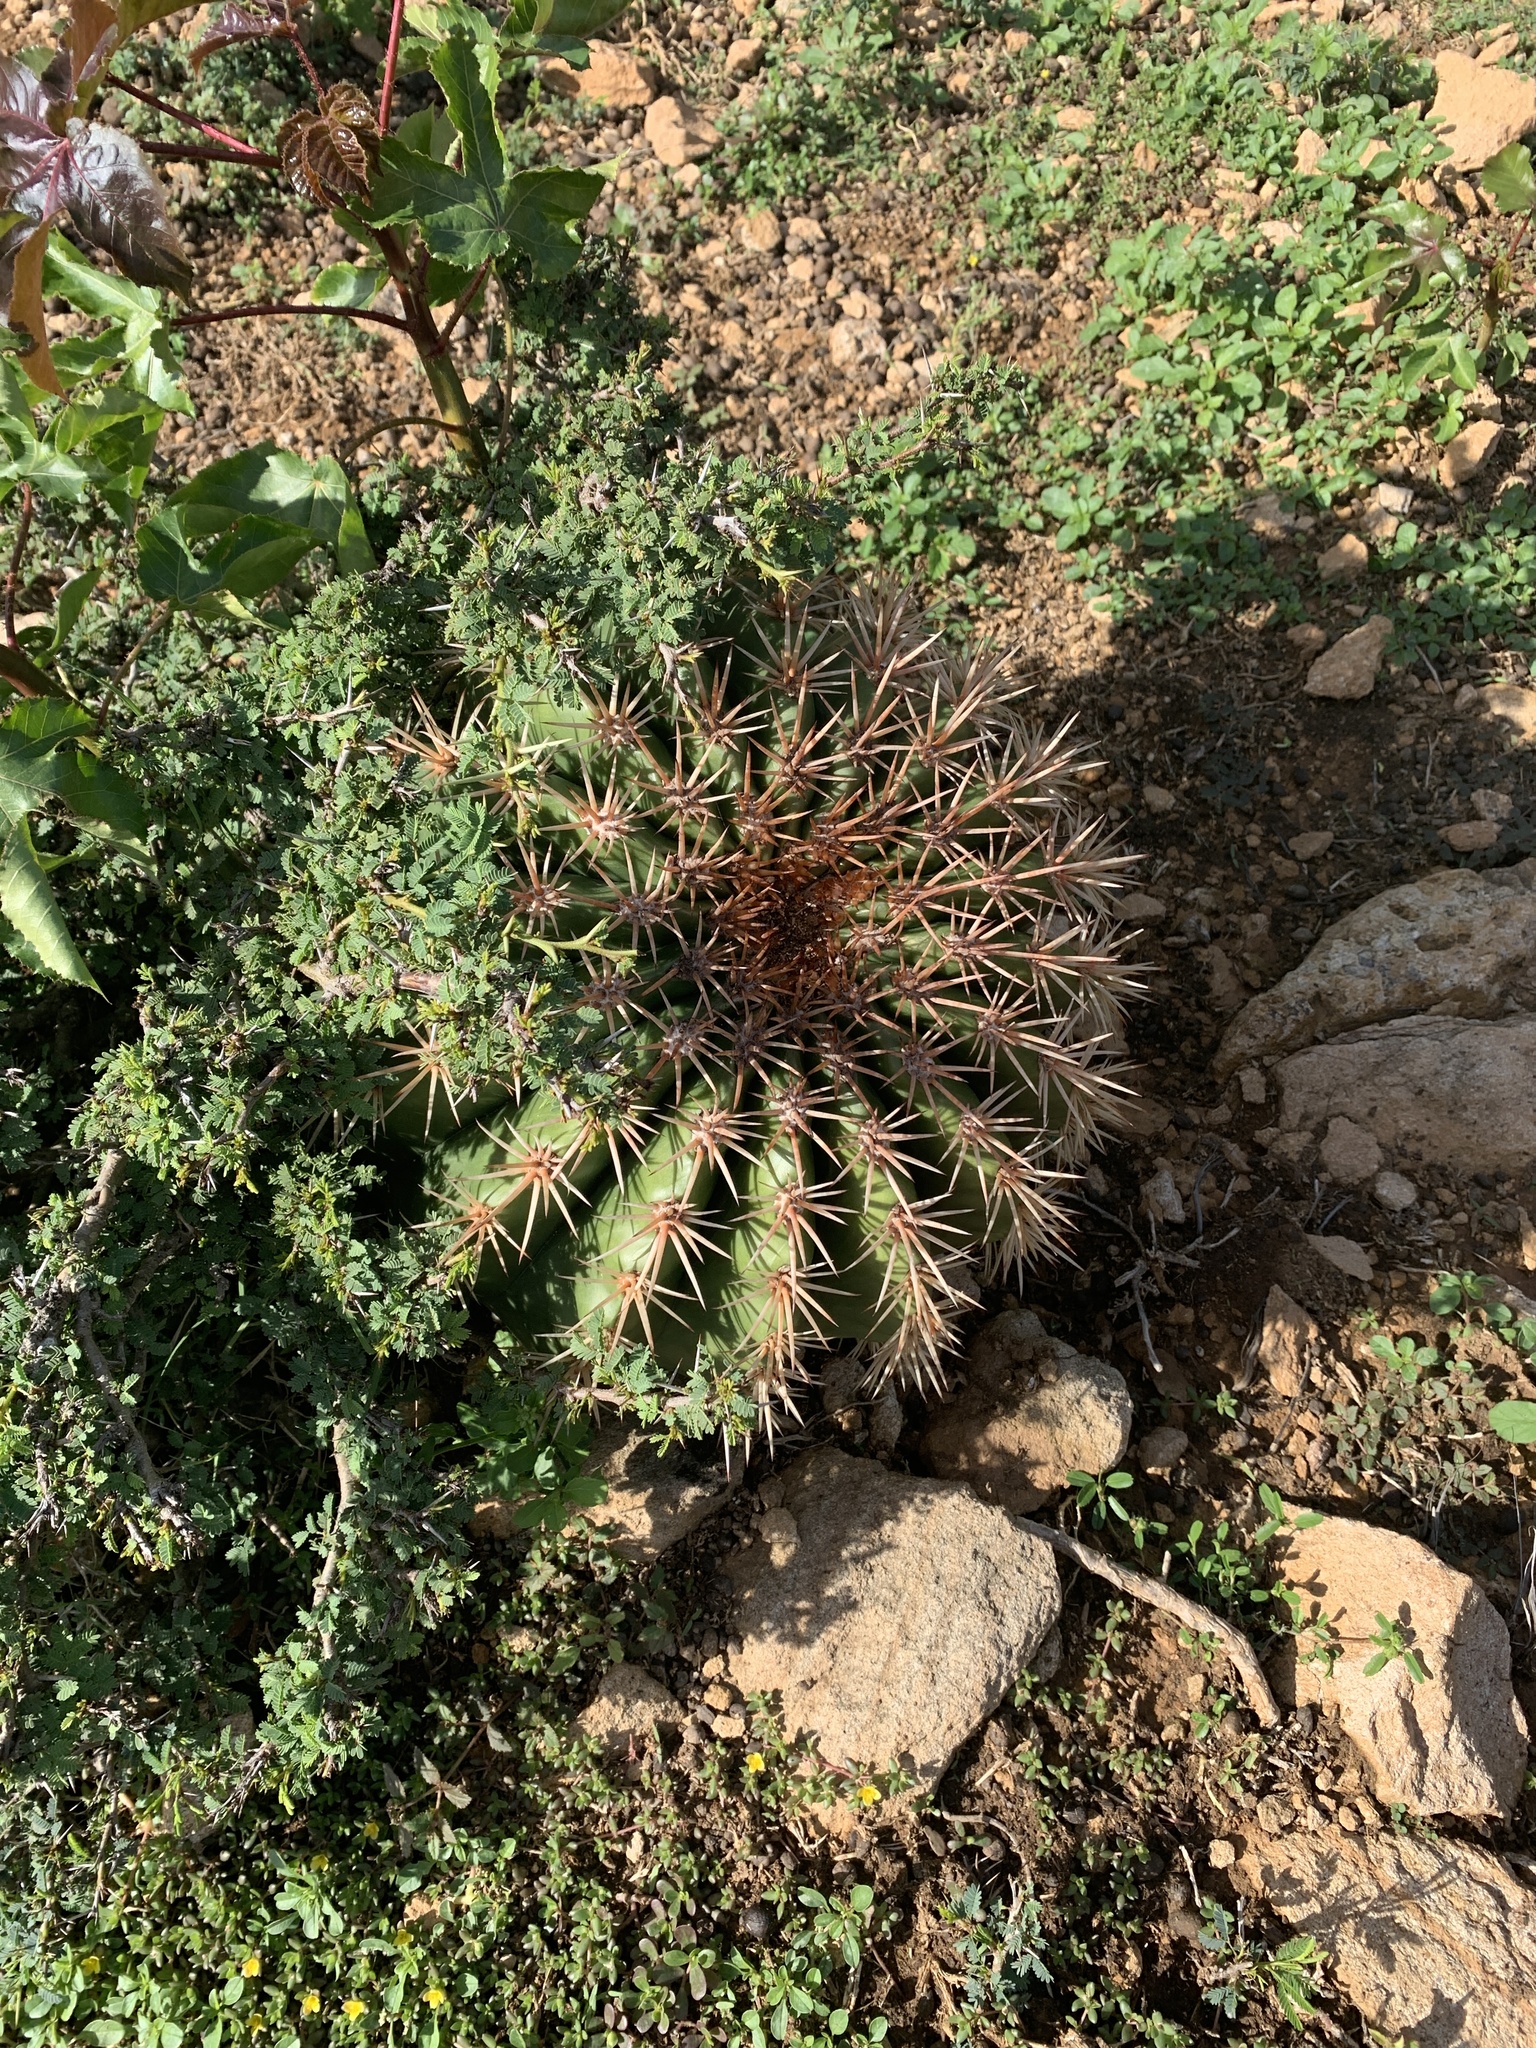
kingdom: Plantae
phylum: Tracheophyta
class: Magnoliopsida
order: Caryophyllales
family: Cactaceae
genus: Melocactus
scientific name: Melocactus intortus
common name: Barrel cactus
